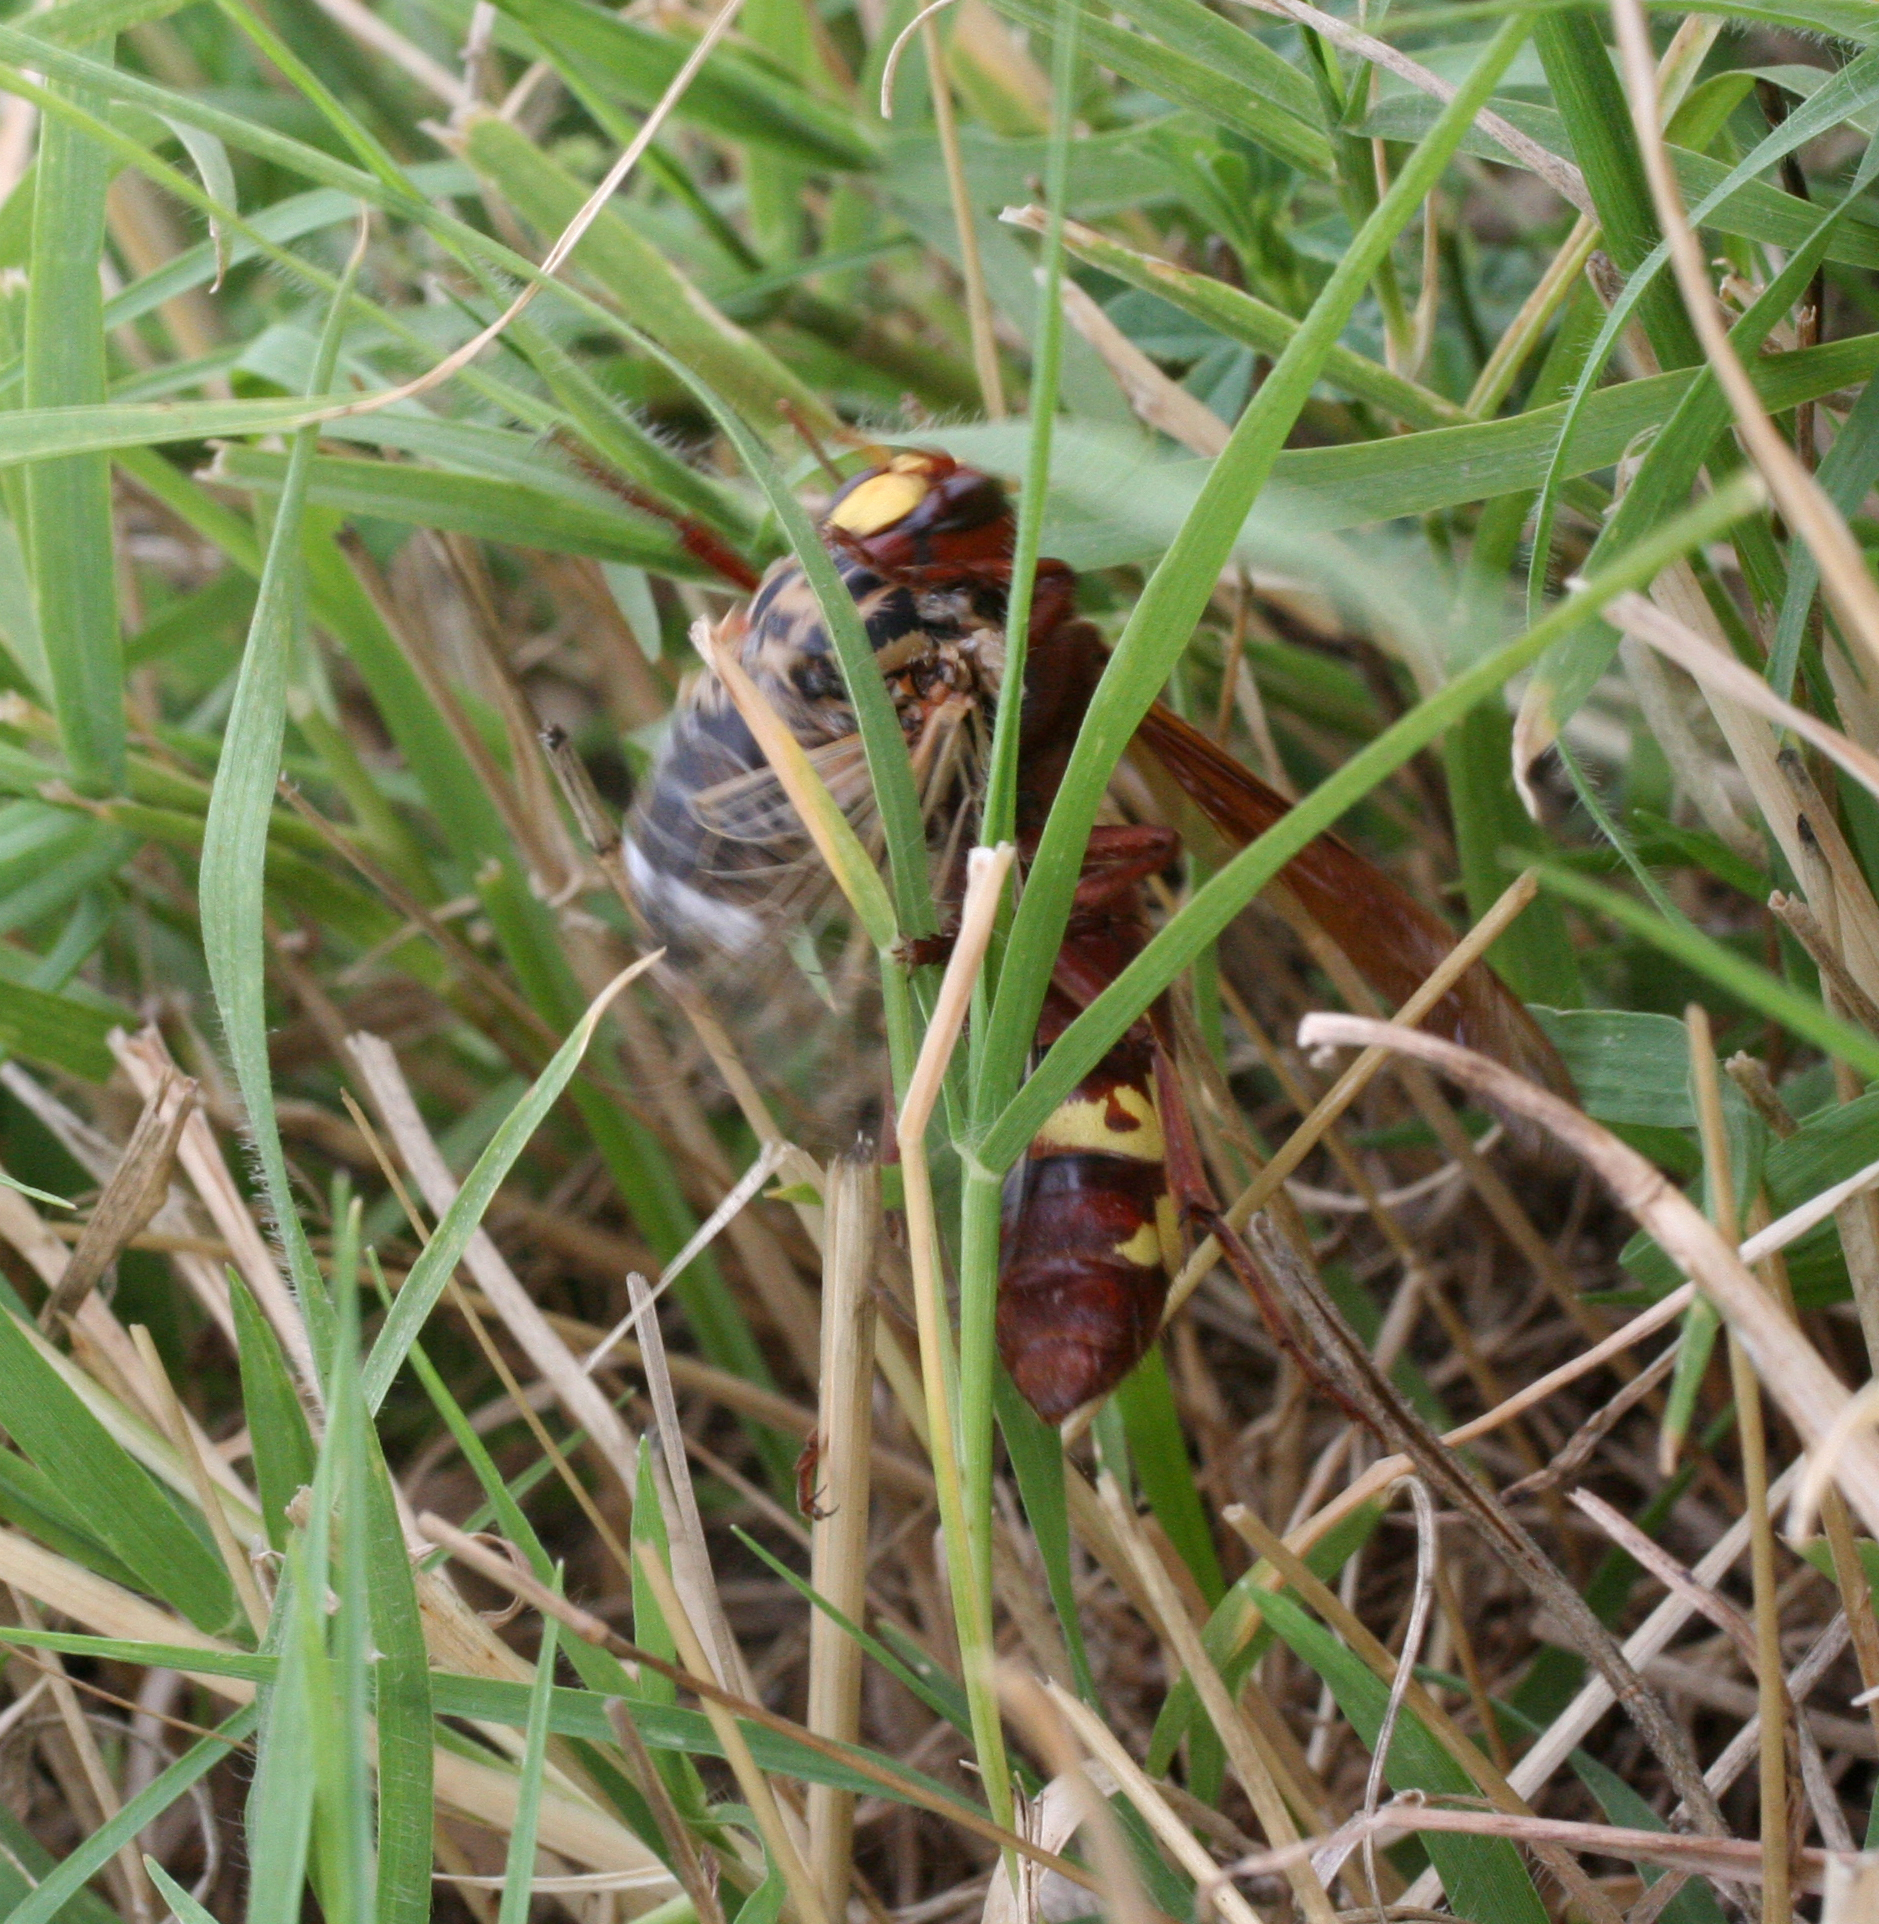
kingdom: Animalia
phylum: Arthropoda
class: Insecta
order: Hymenoptera
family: Vespidae
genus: Vespa
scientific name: Vespa orientalis
